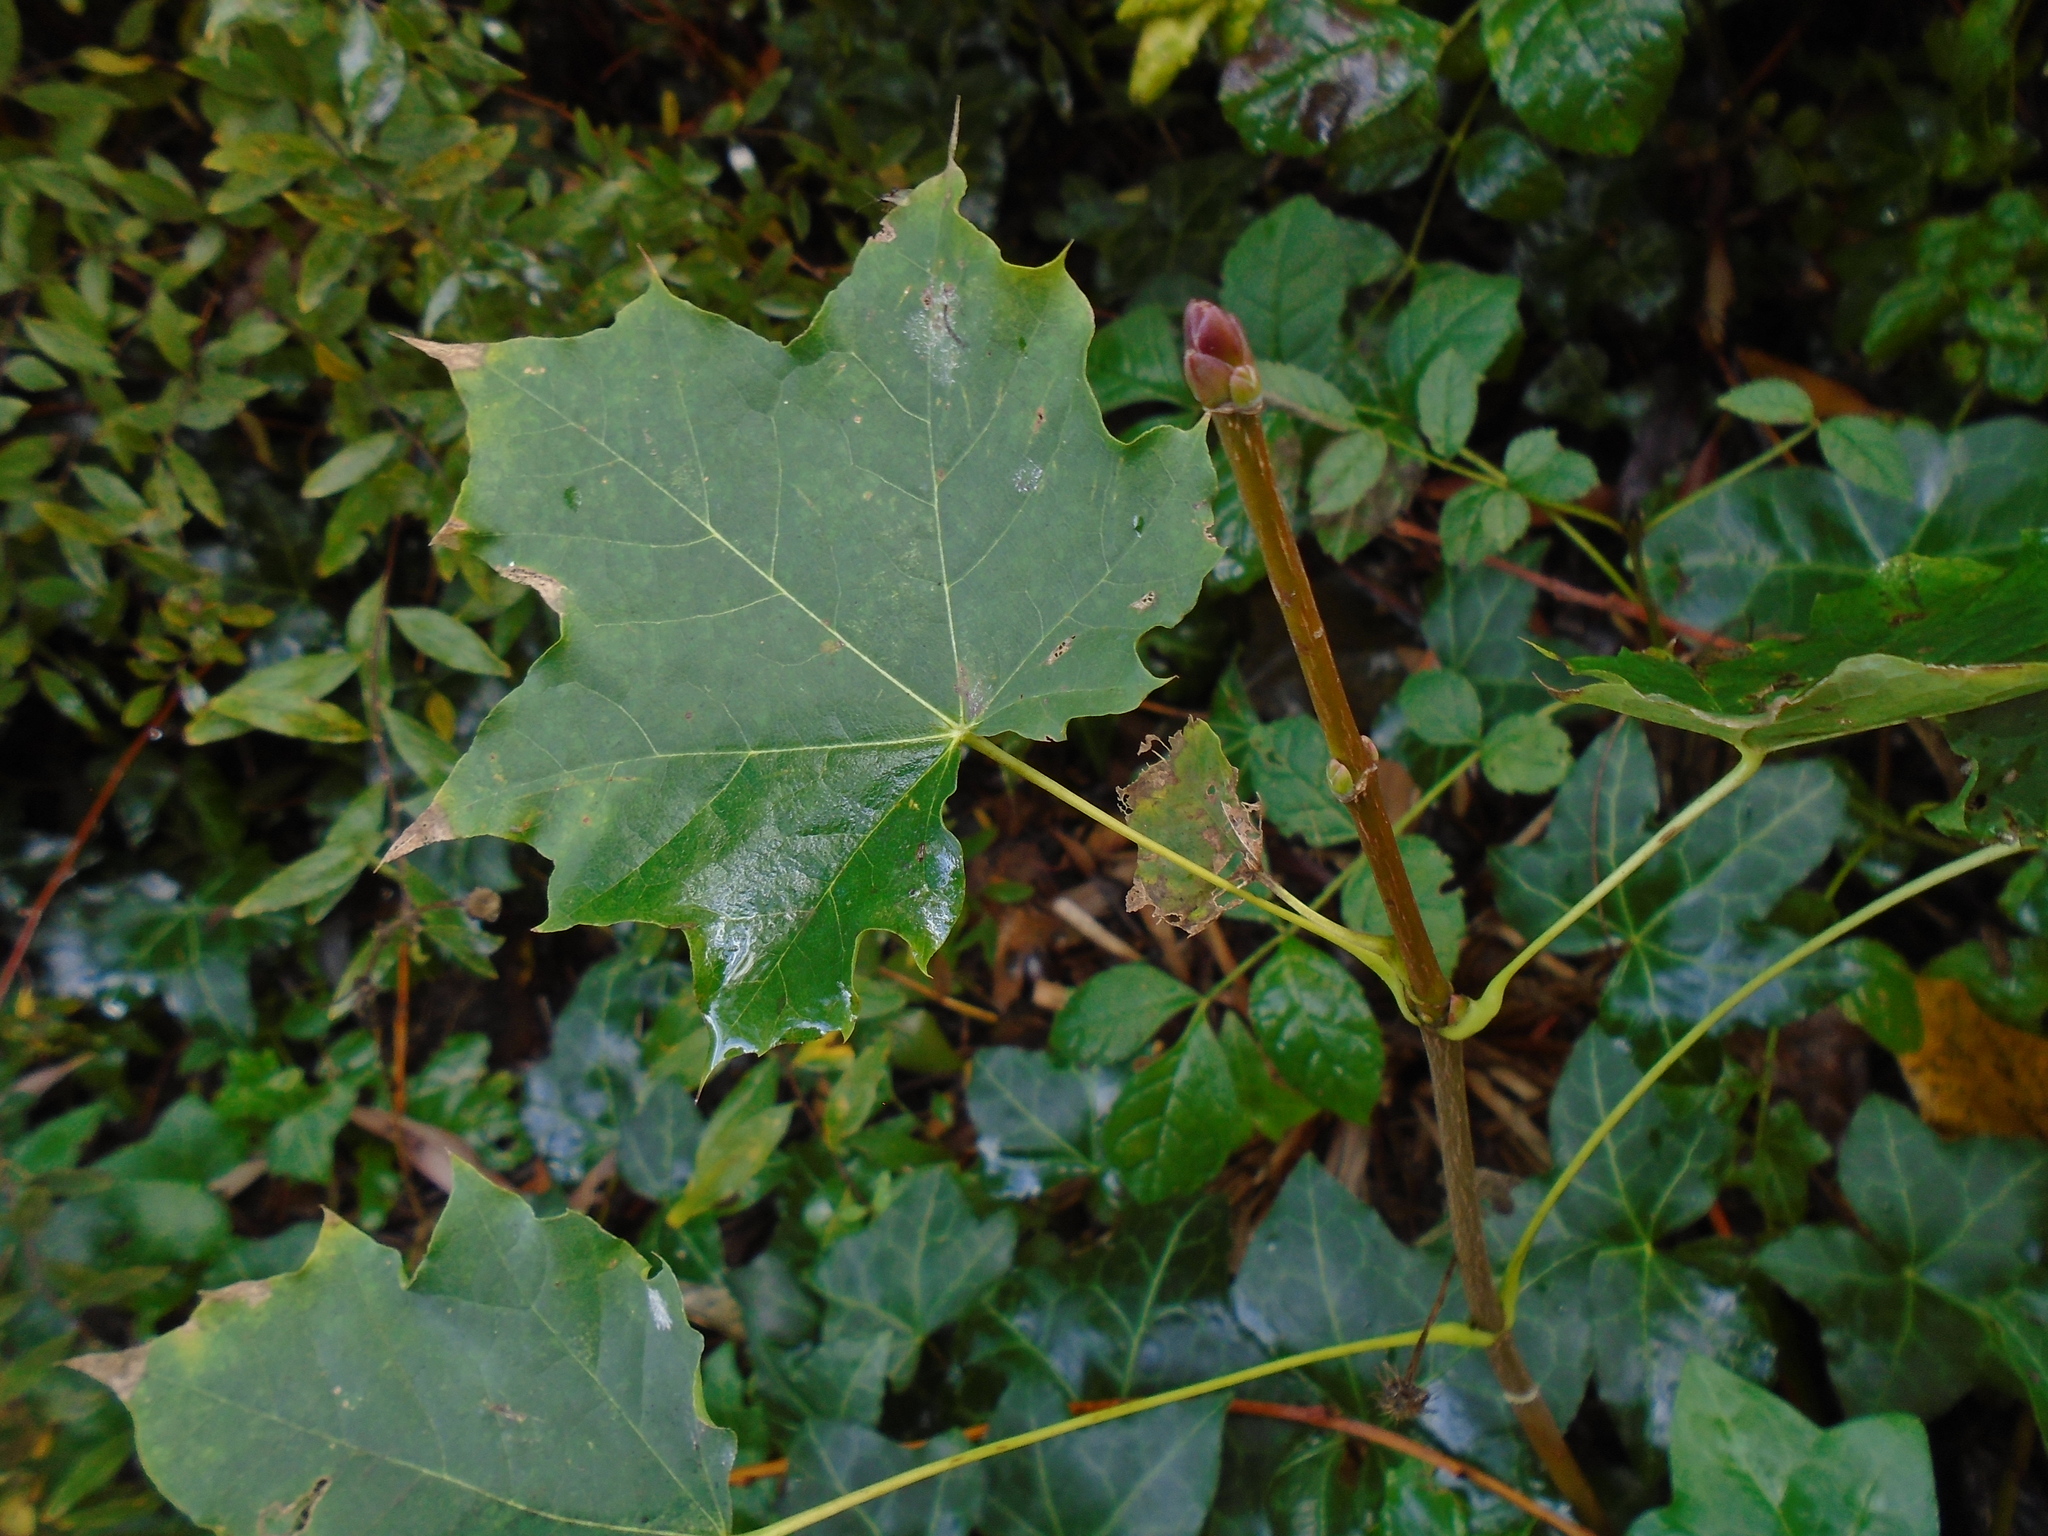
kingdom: Plantae
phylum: Tracheophyta
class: Magnoliopsida
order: Sapindales
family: Sapindaceae
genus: Acer
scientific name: Acer platanoides
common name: Norway maple
